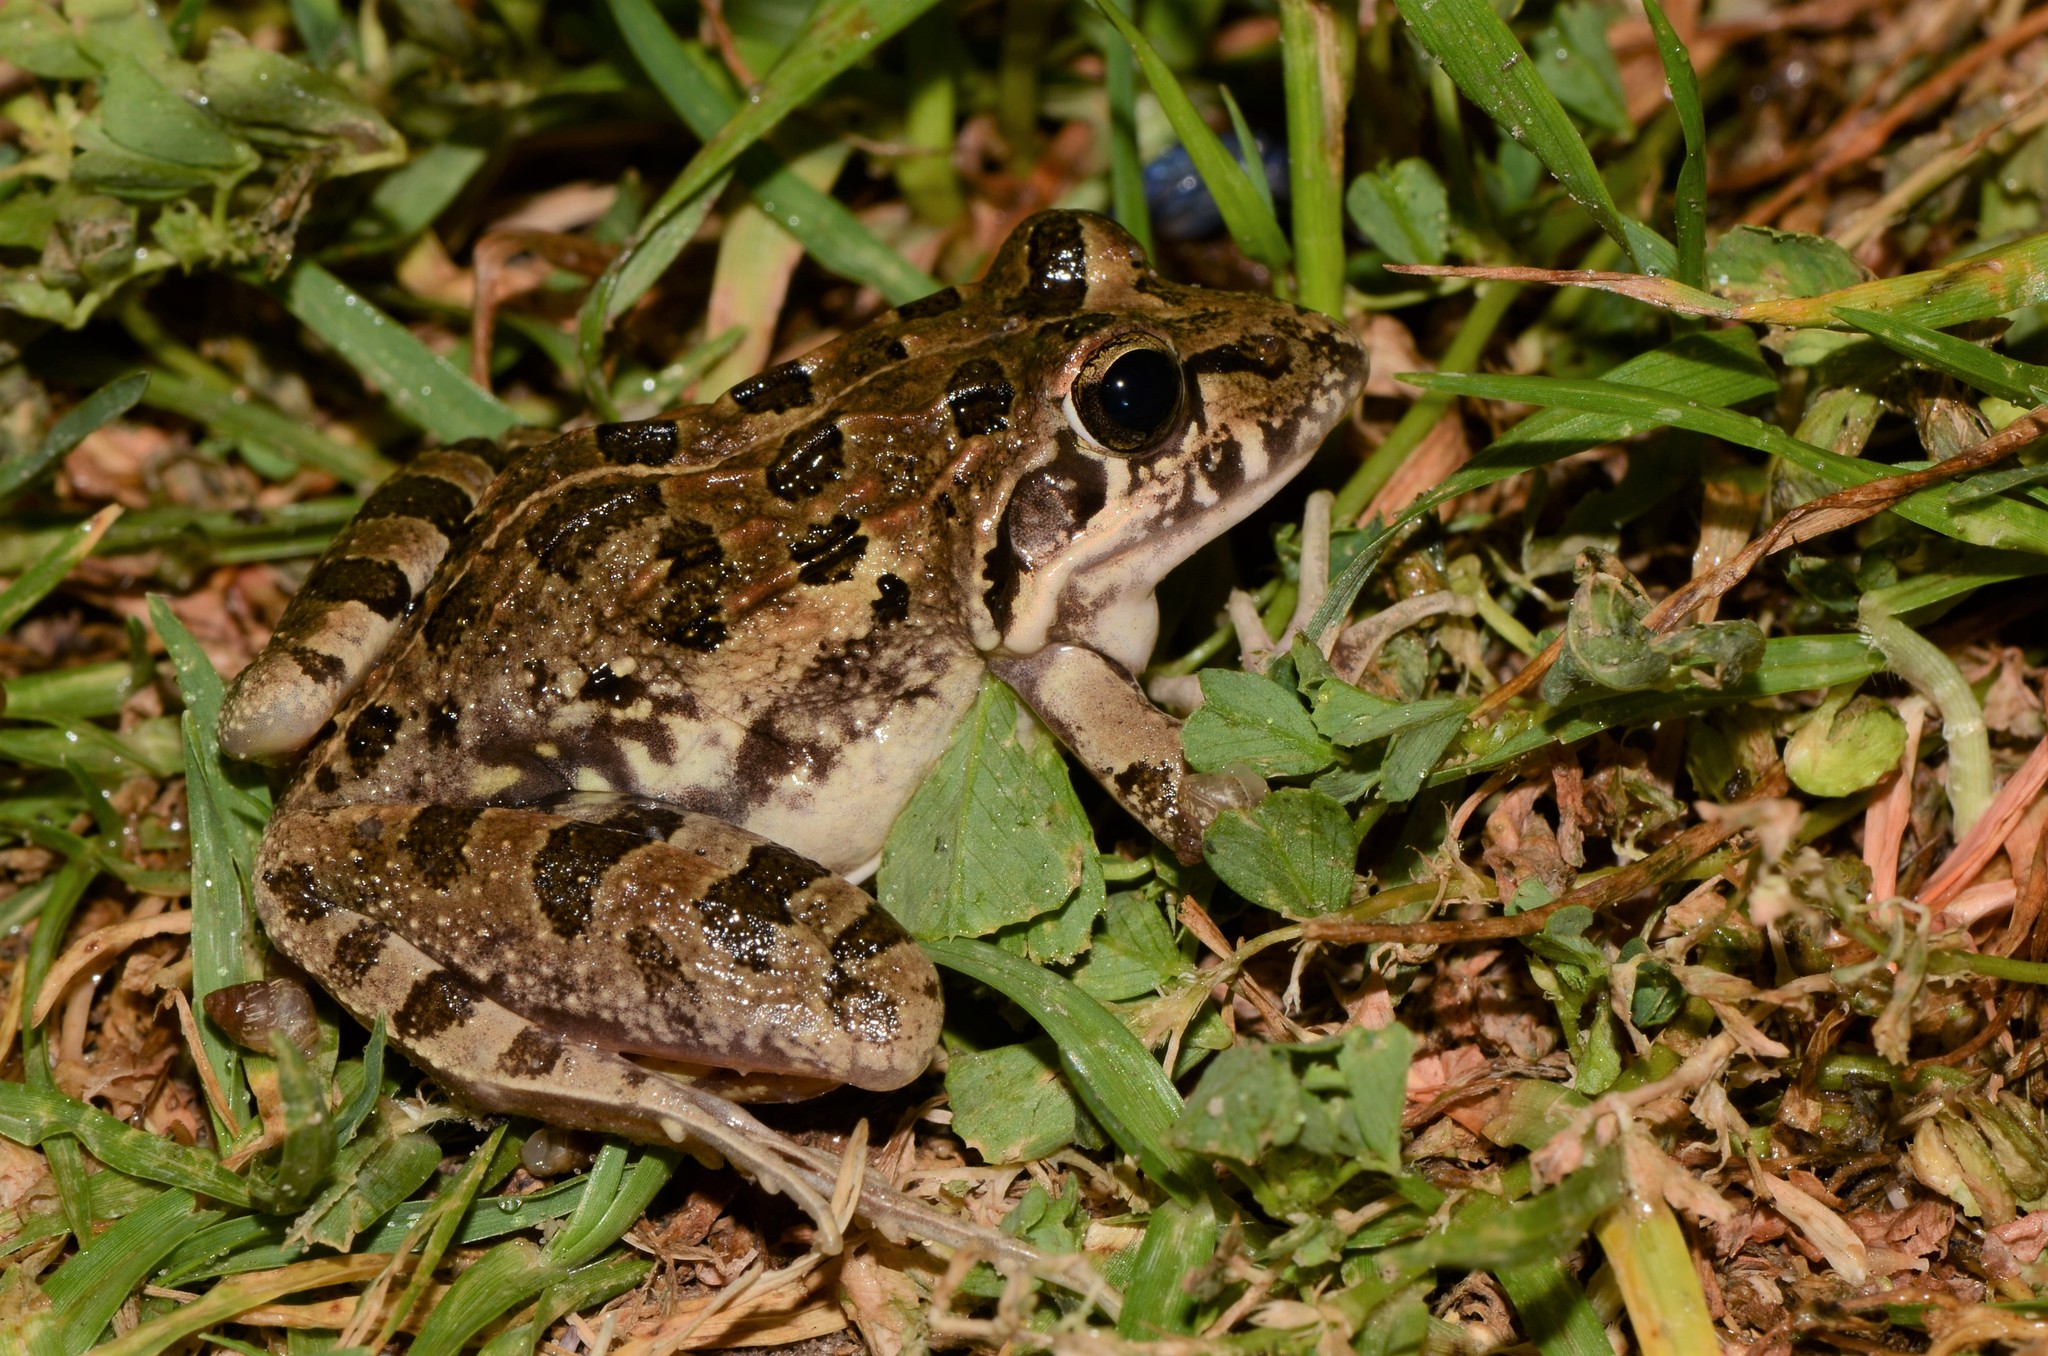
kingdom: Animalia
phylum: Chordata
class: Amphibia
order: Anura
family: Pyxicephalidae
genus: Strongylopus
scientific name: Strongylopus grayii
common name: Gray's stream frog
